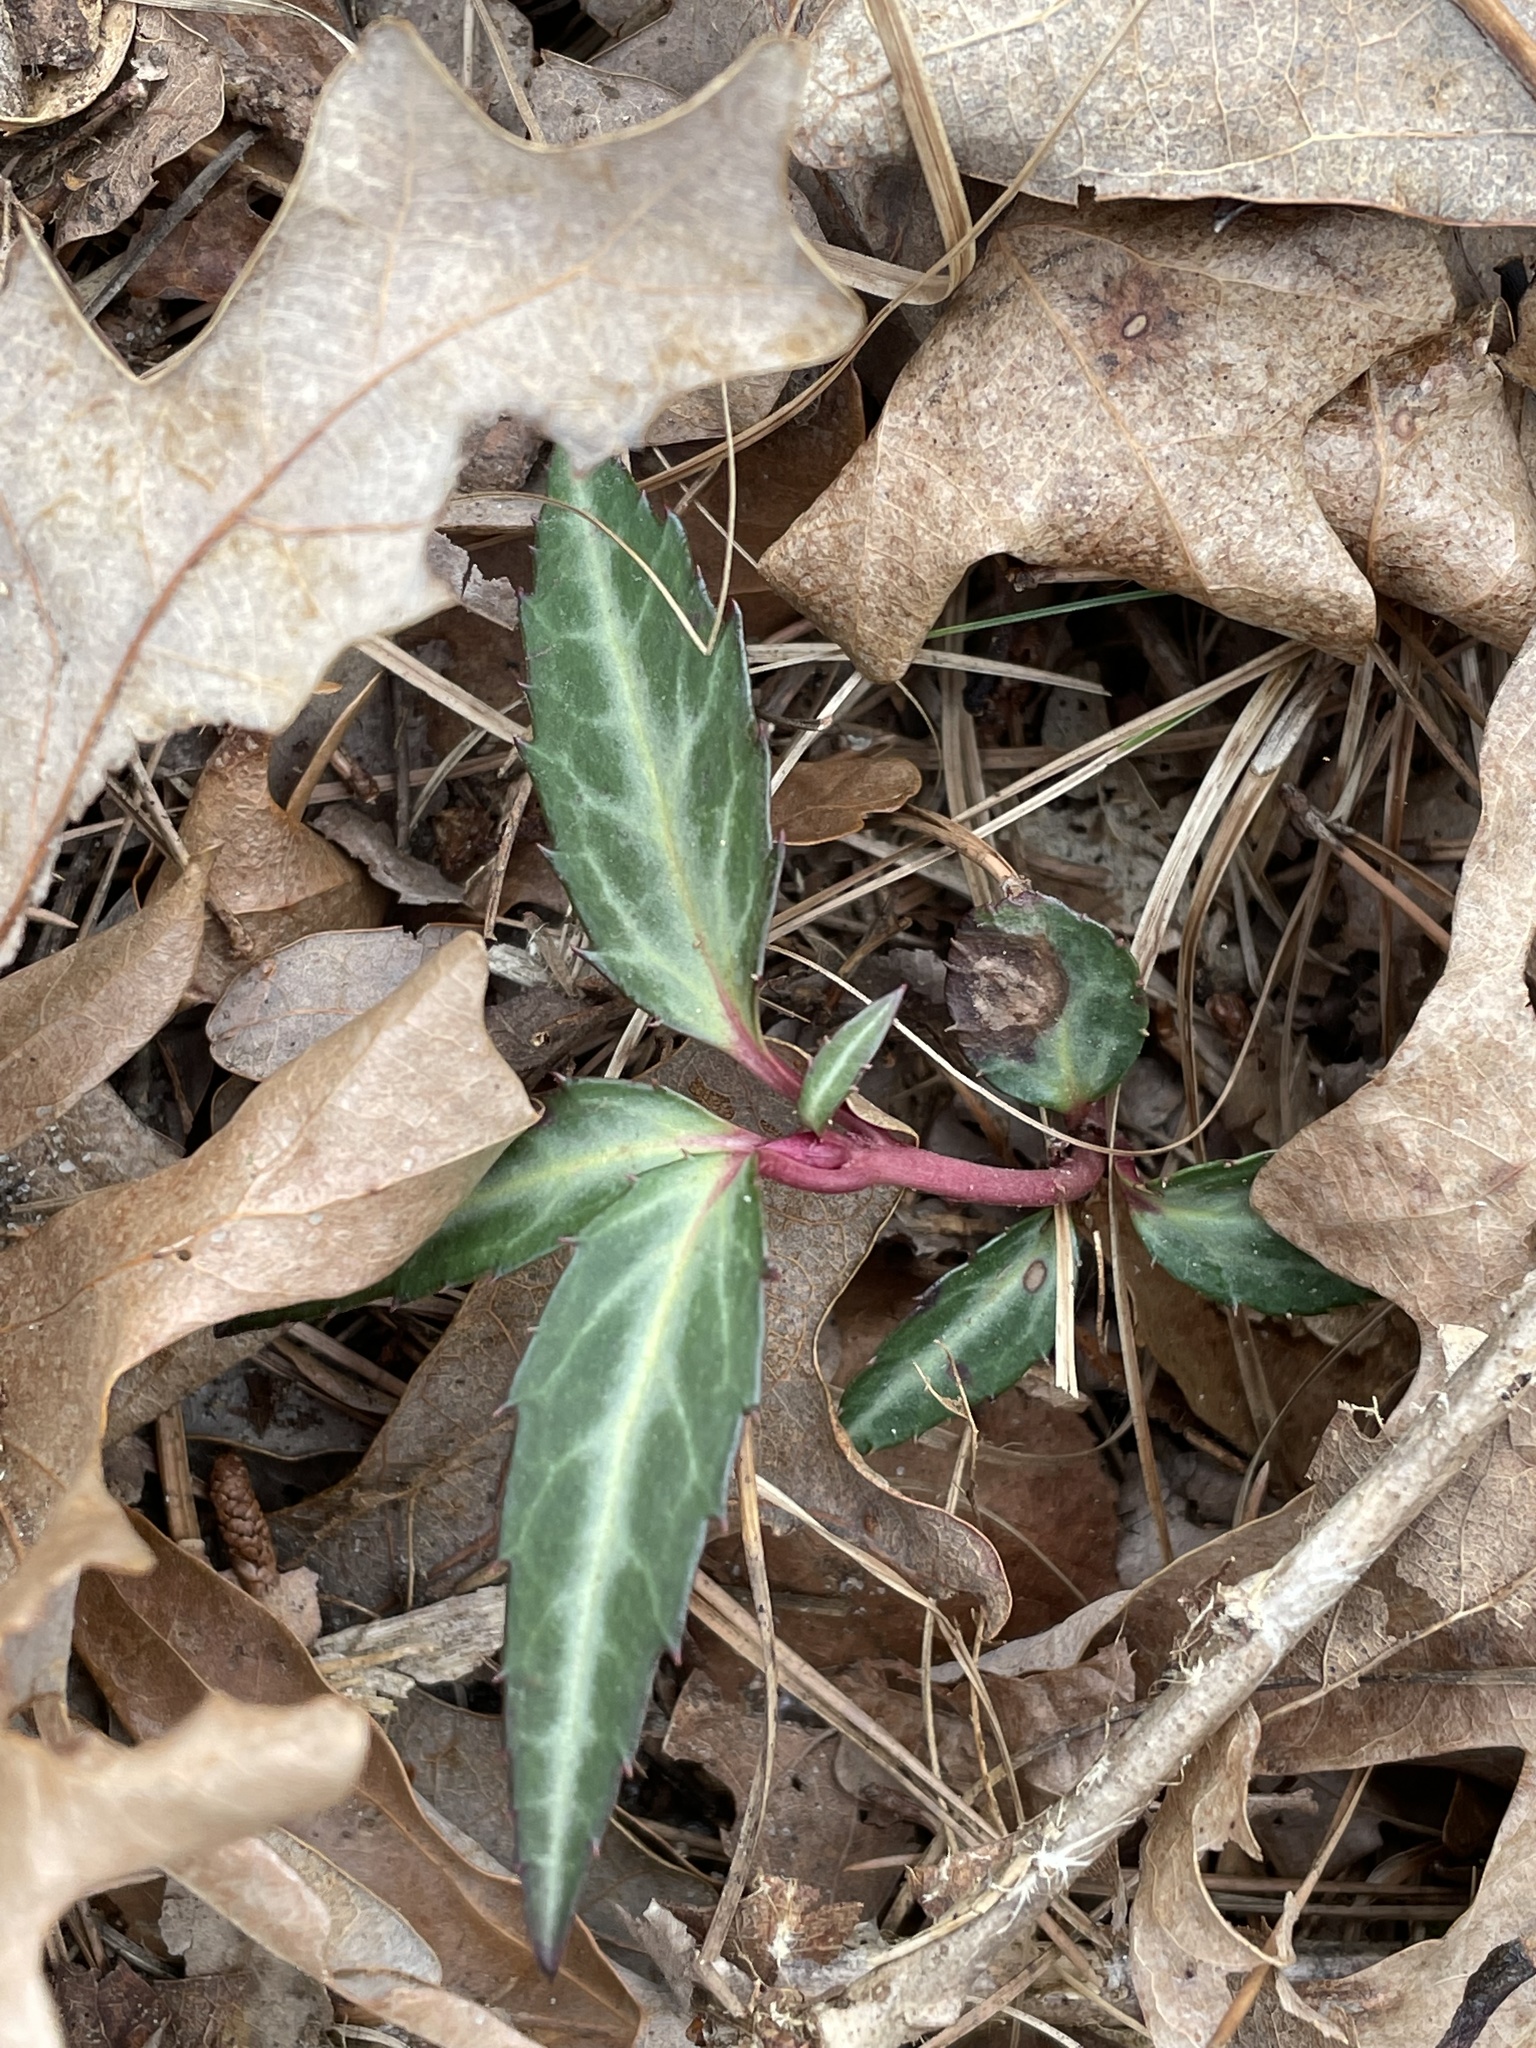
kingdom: Plantae
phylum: Tracheophyta
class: Magnoliopsida
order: Ericales
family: Ericaceae
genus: Chimaphila
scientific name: Chimaphila maculata
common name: Spotted pipsissewa
